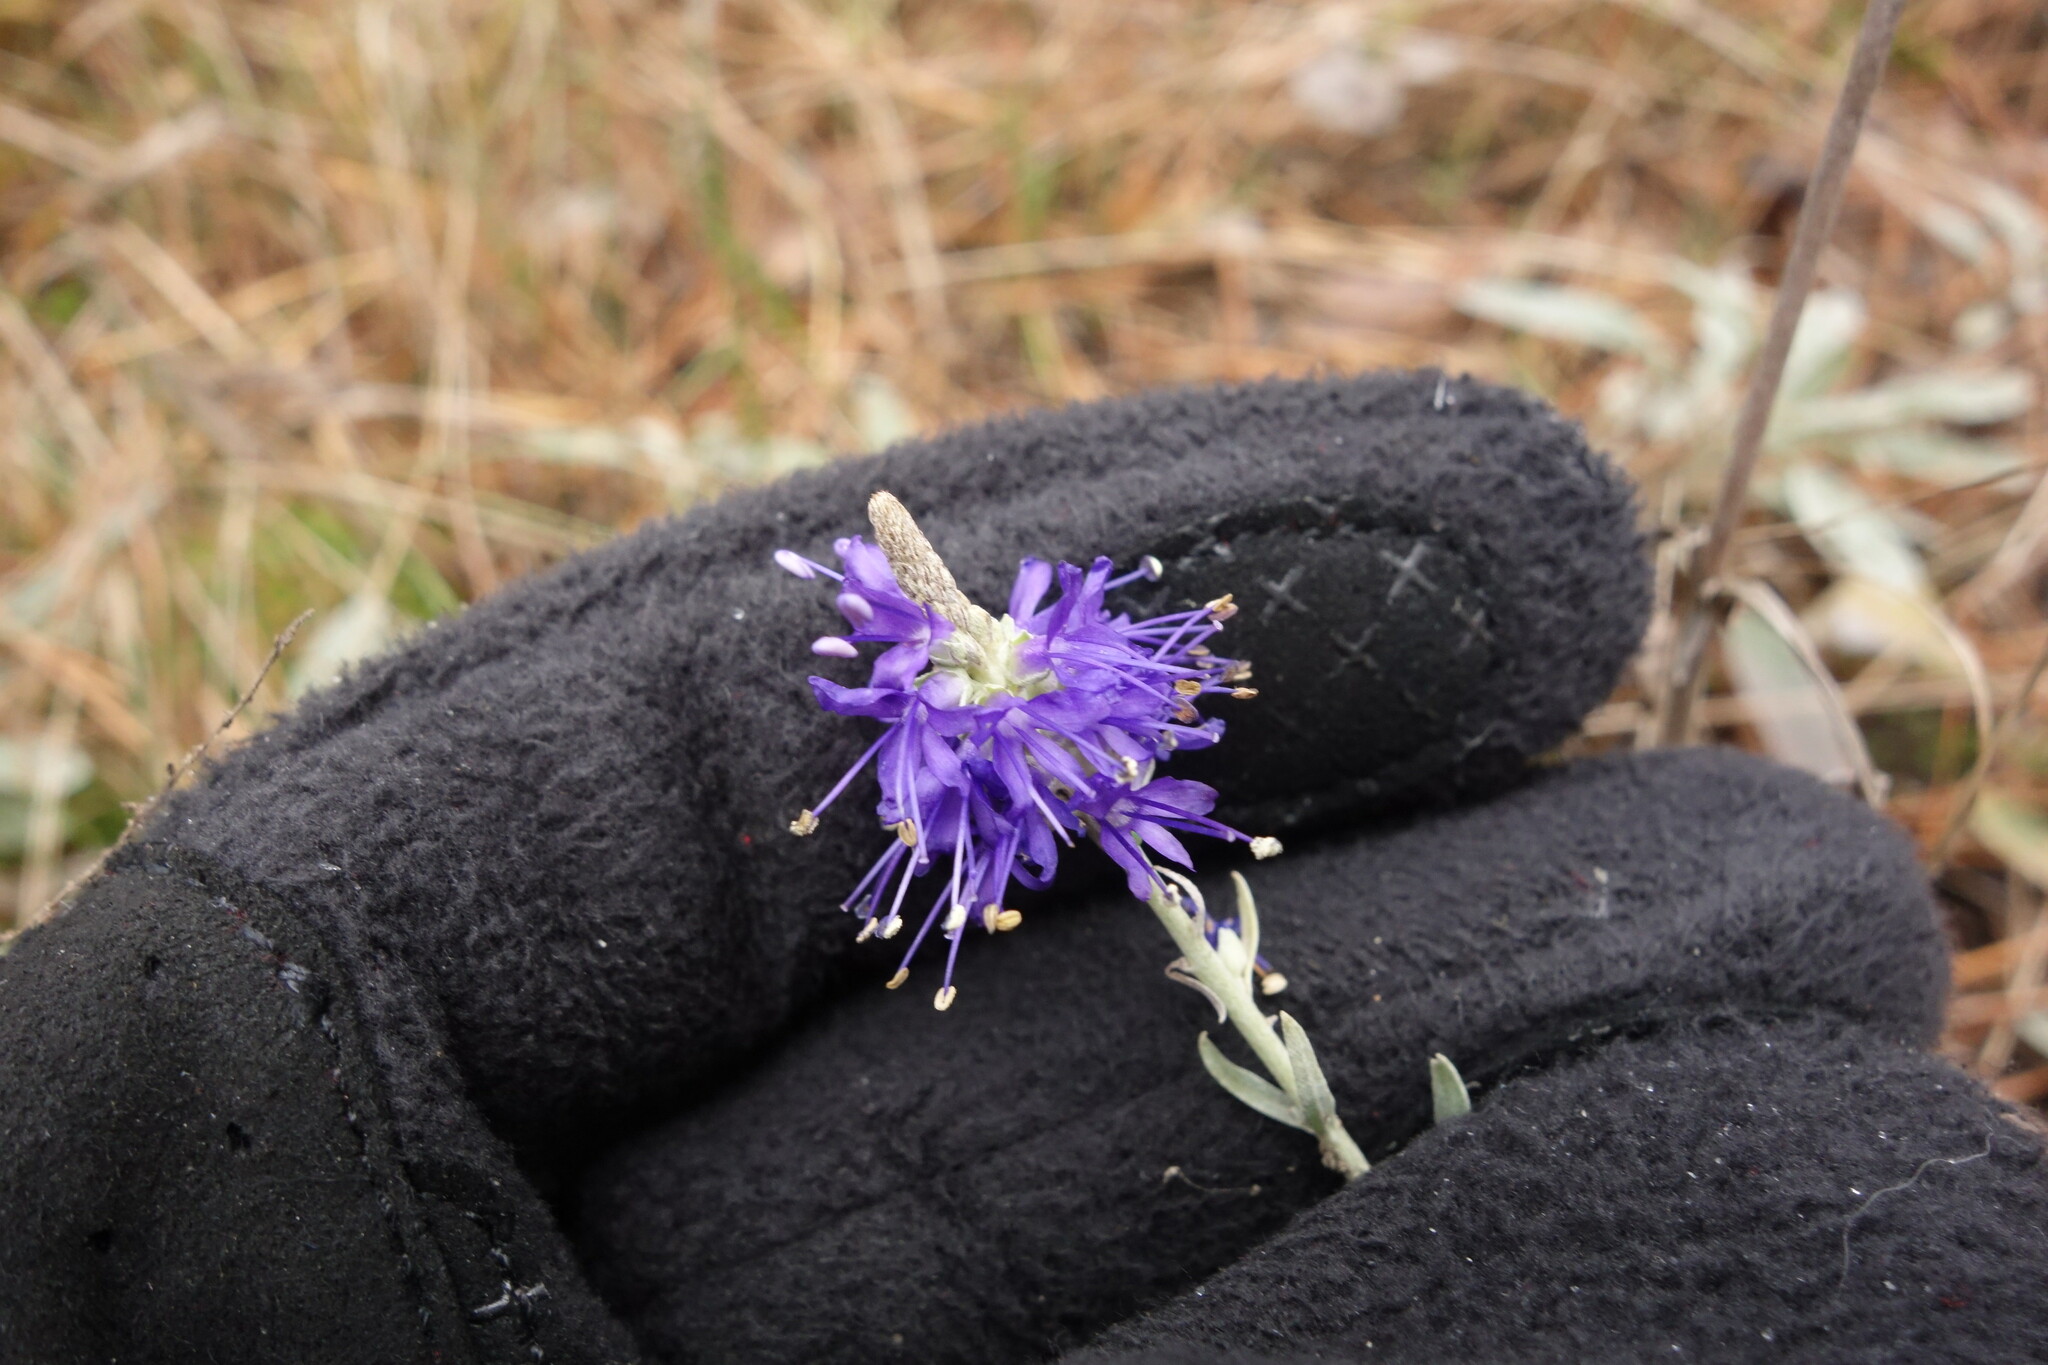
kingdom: Plantae
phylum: Tracheophyta
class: Magnoliopsida
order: Lamiales
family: Plantaginaceae
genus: Veronica
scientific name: Veronica incana
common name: Silver speedwell
